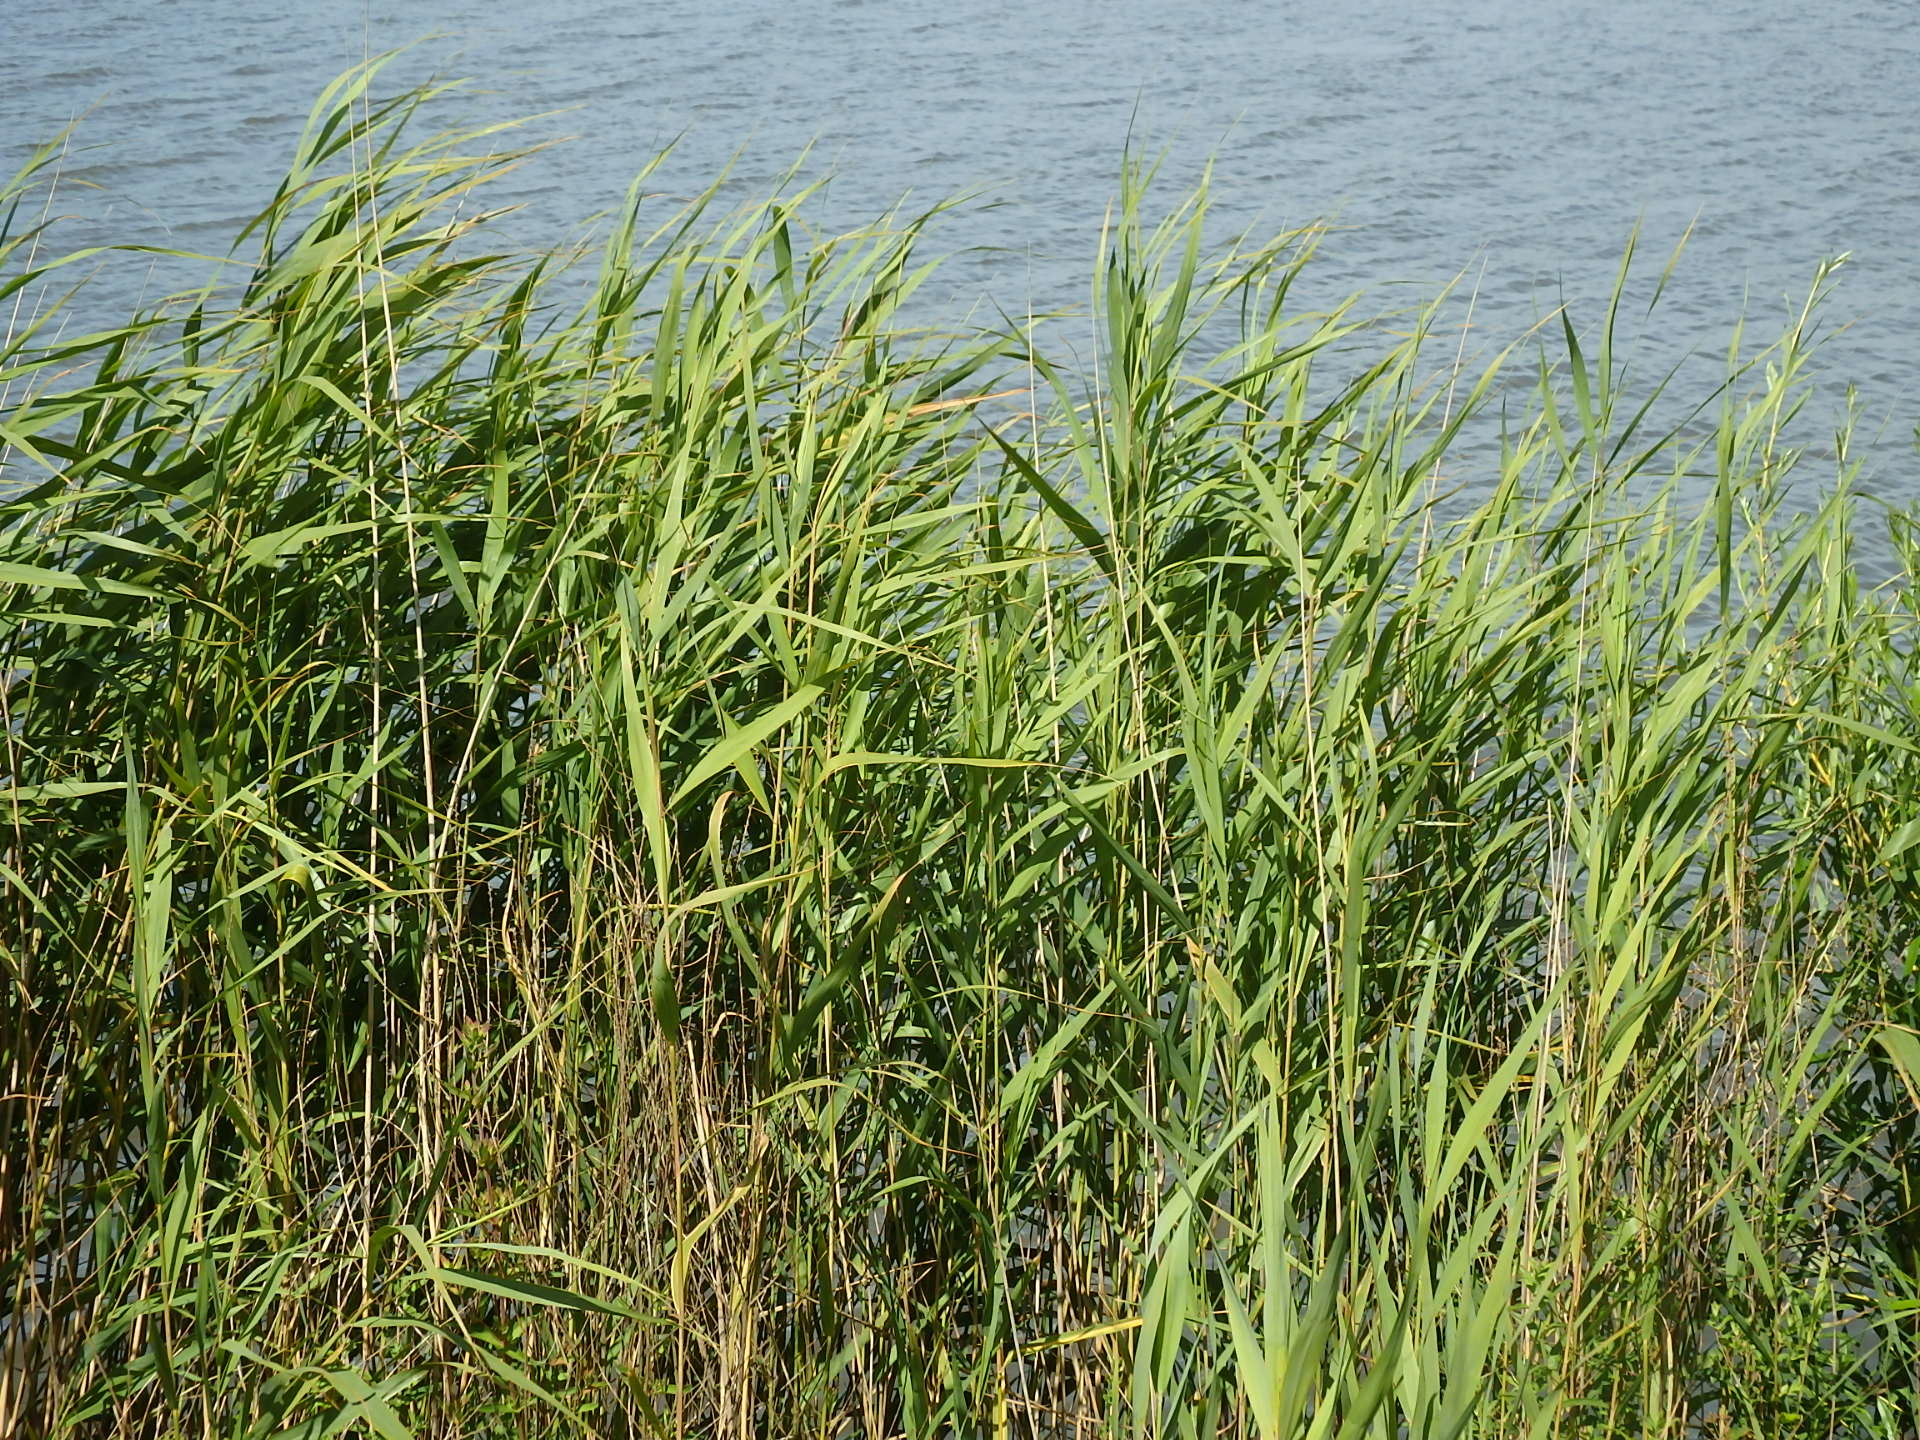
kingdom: Plantae
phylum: Tracheophyta
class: Liliopsida
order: Poales
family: Poaceae
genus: Phragmites
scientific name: Phragmites australis
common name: Common reed
